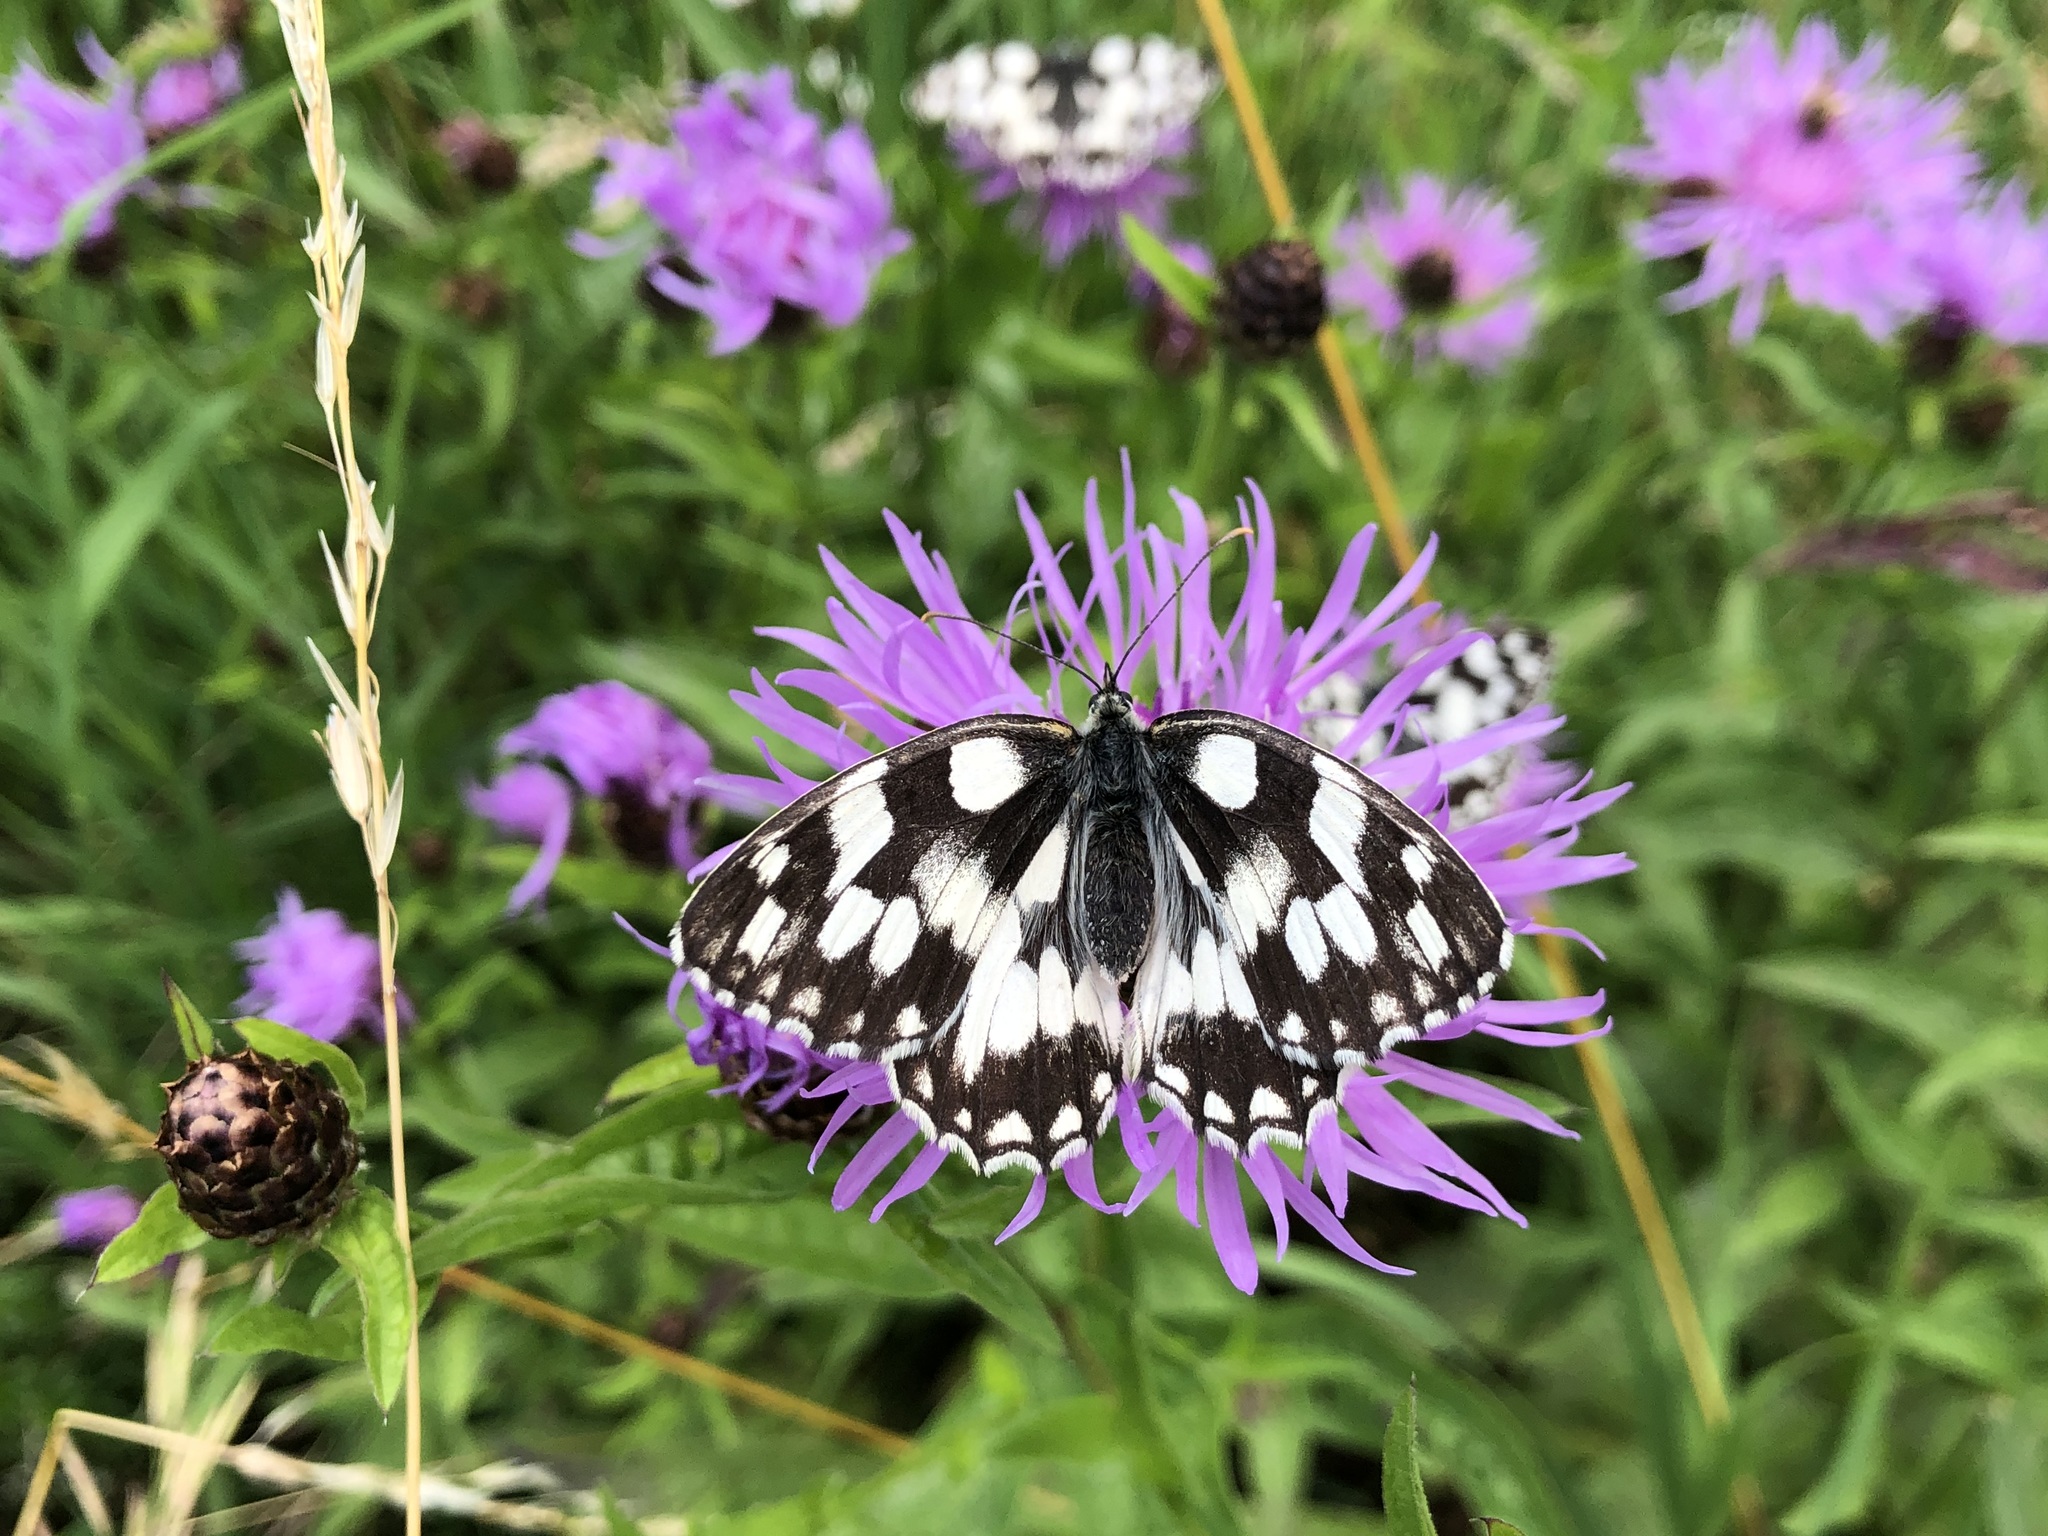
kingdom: Animalia
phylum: Arthropoda
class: Insecta
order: Lepidoptera
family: Nymphalidae
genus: Melanargia
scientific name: Melanargia galathea
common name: Marbled white
